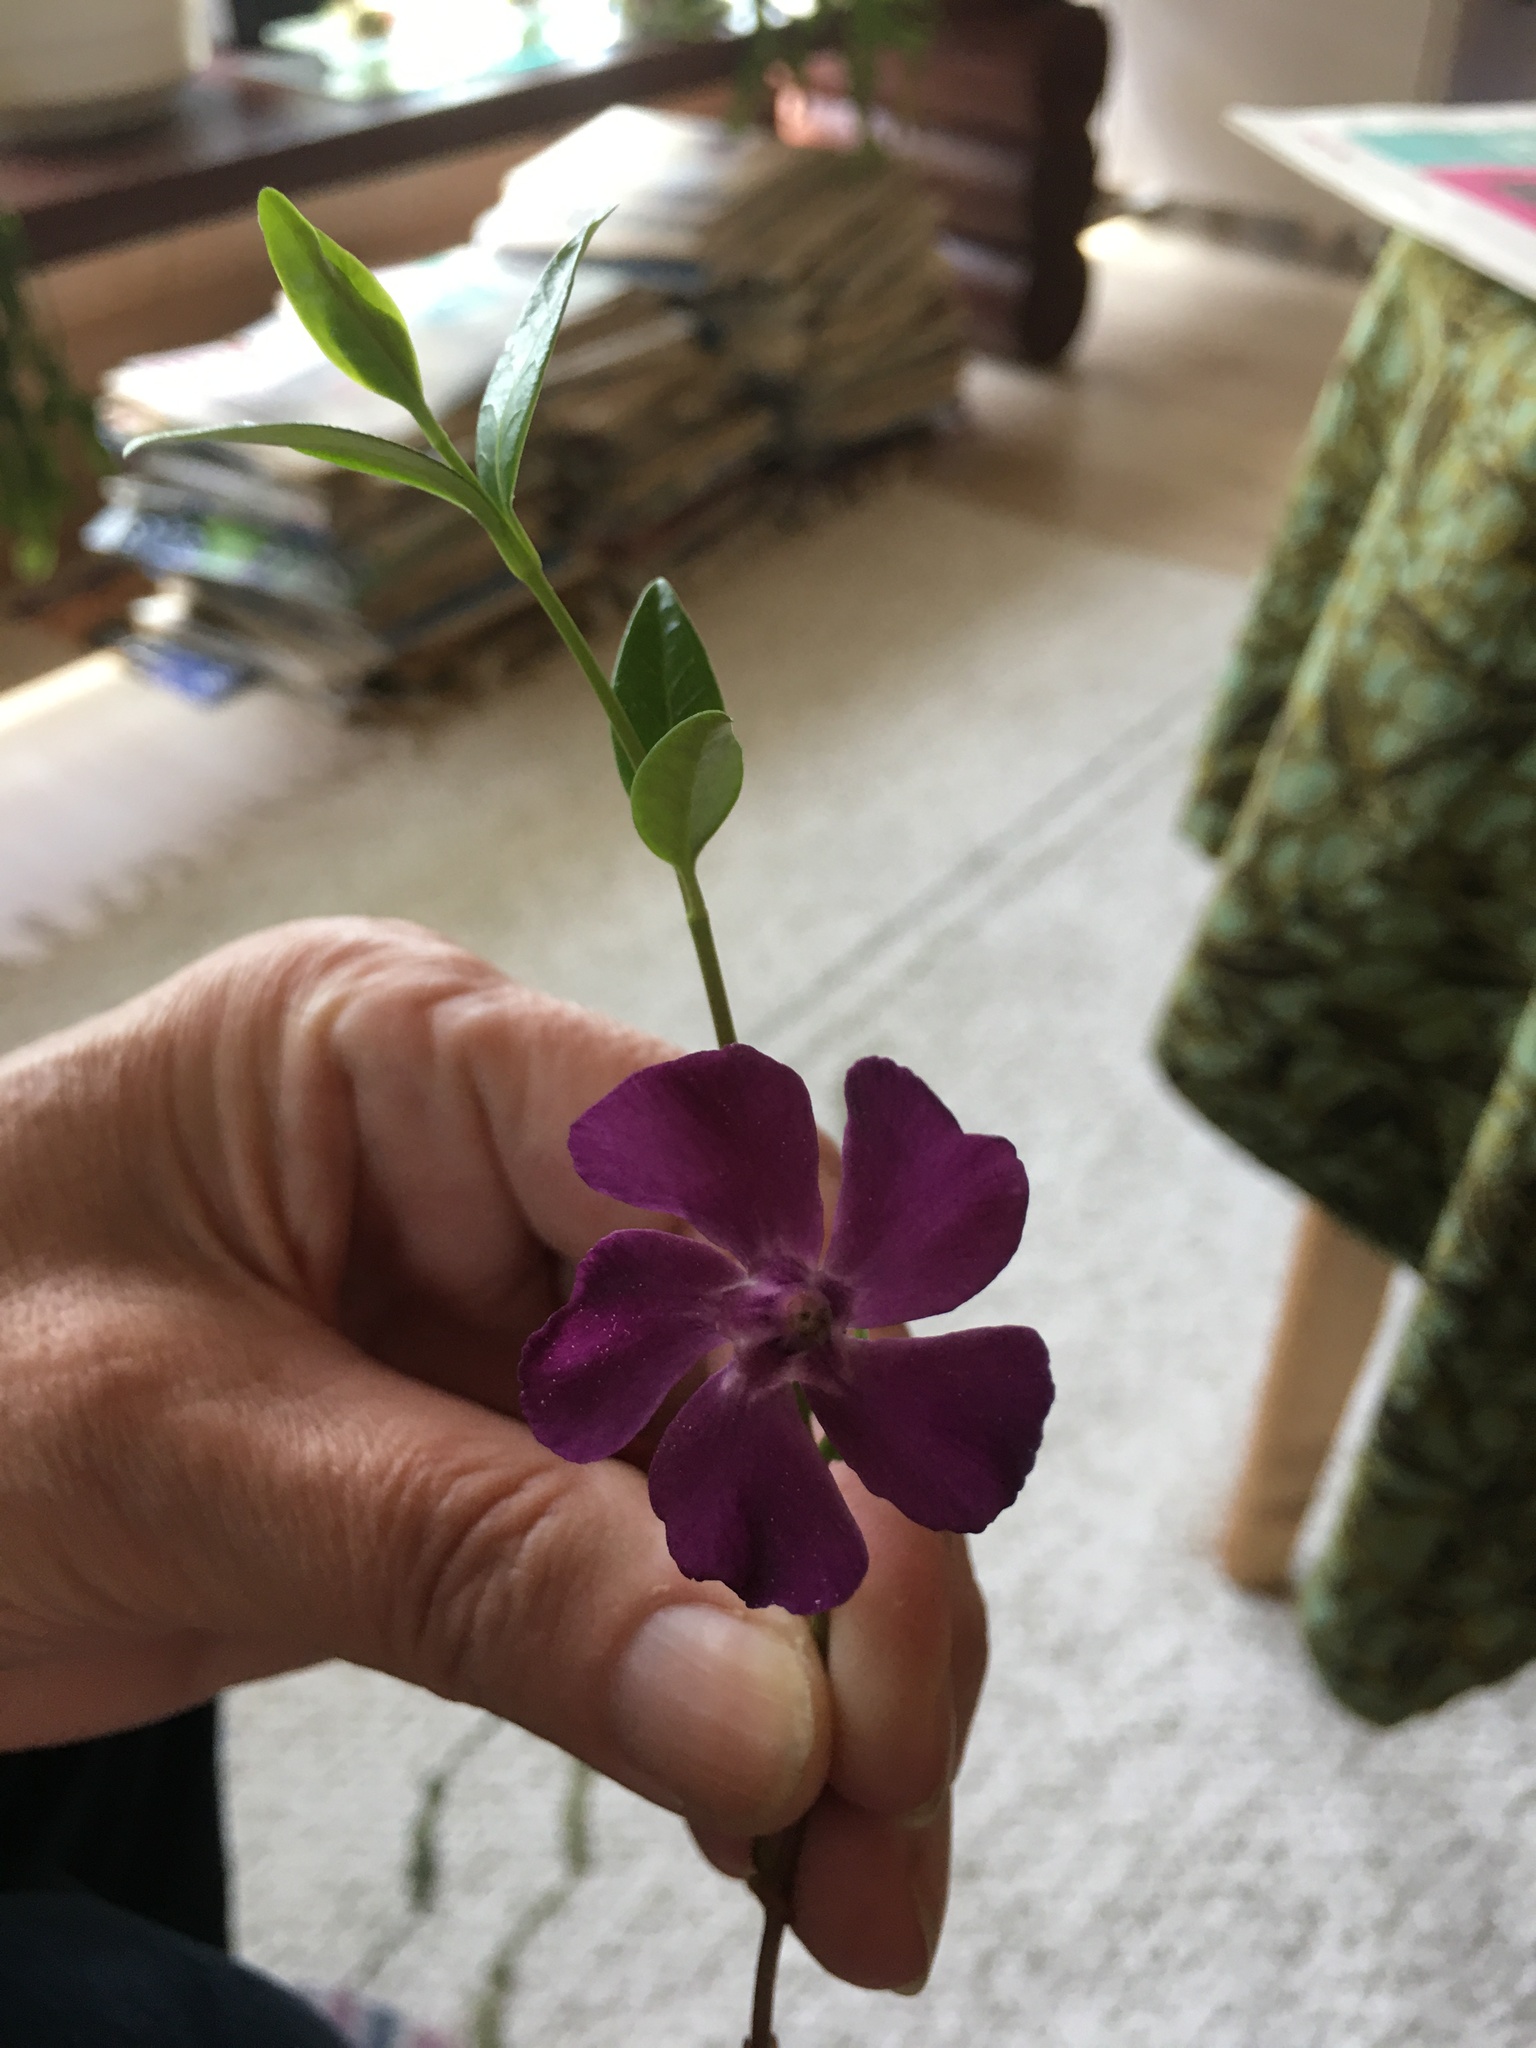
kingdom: Plantae
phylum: Tracheophyta
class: Magnoliopsida
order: Gentianales
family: Apocynaceae
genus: Vinca
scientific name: Vinca minor
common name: Lesser periwinkle
